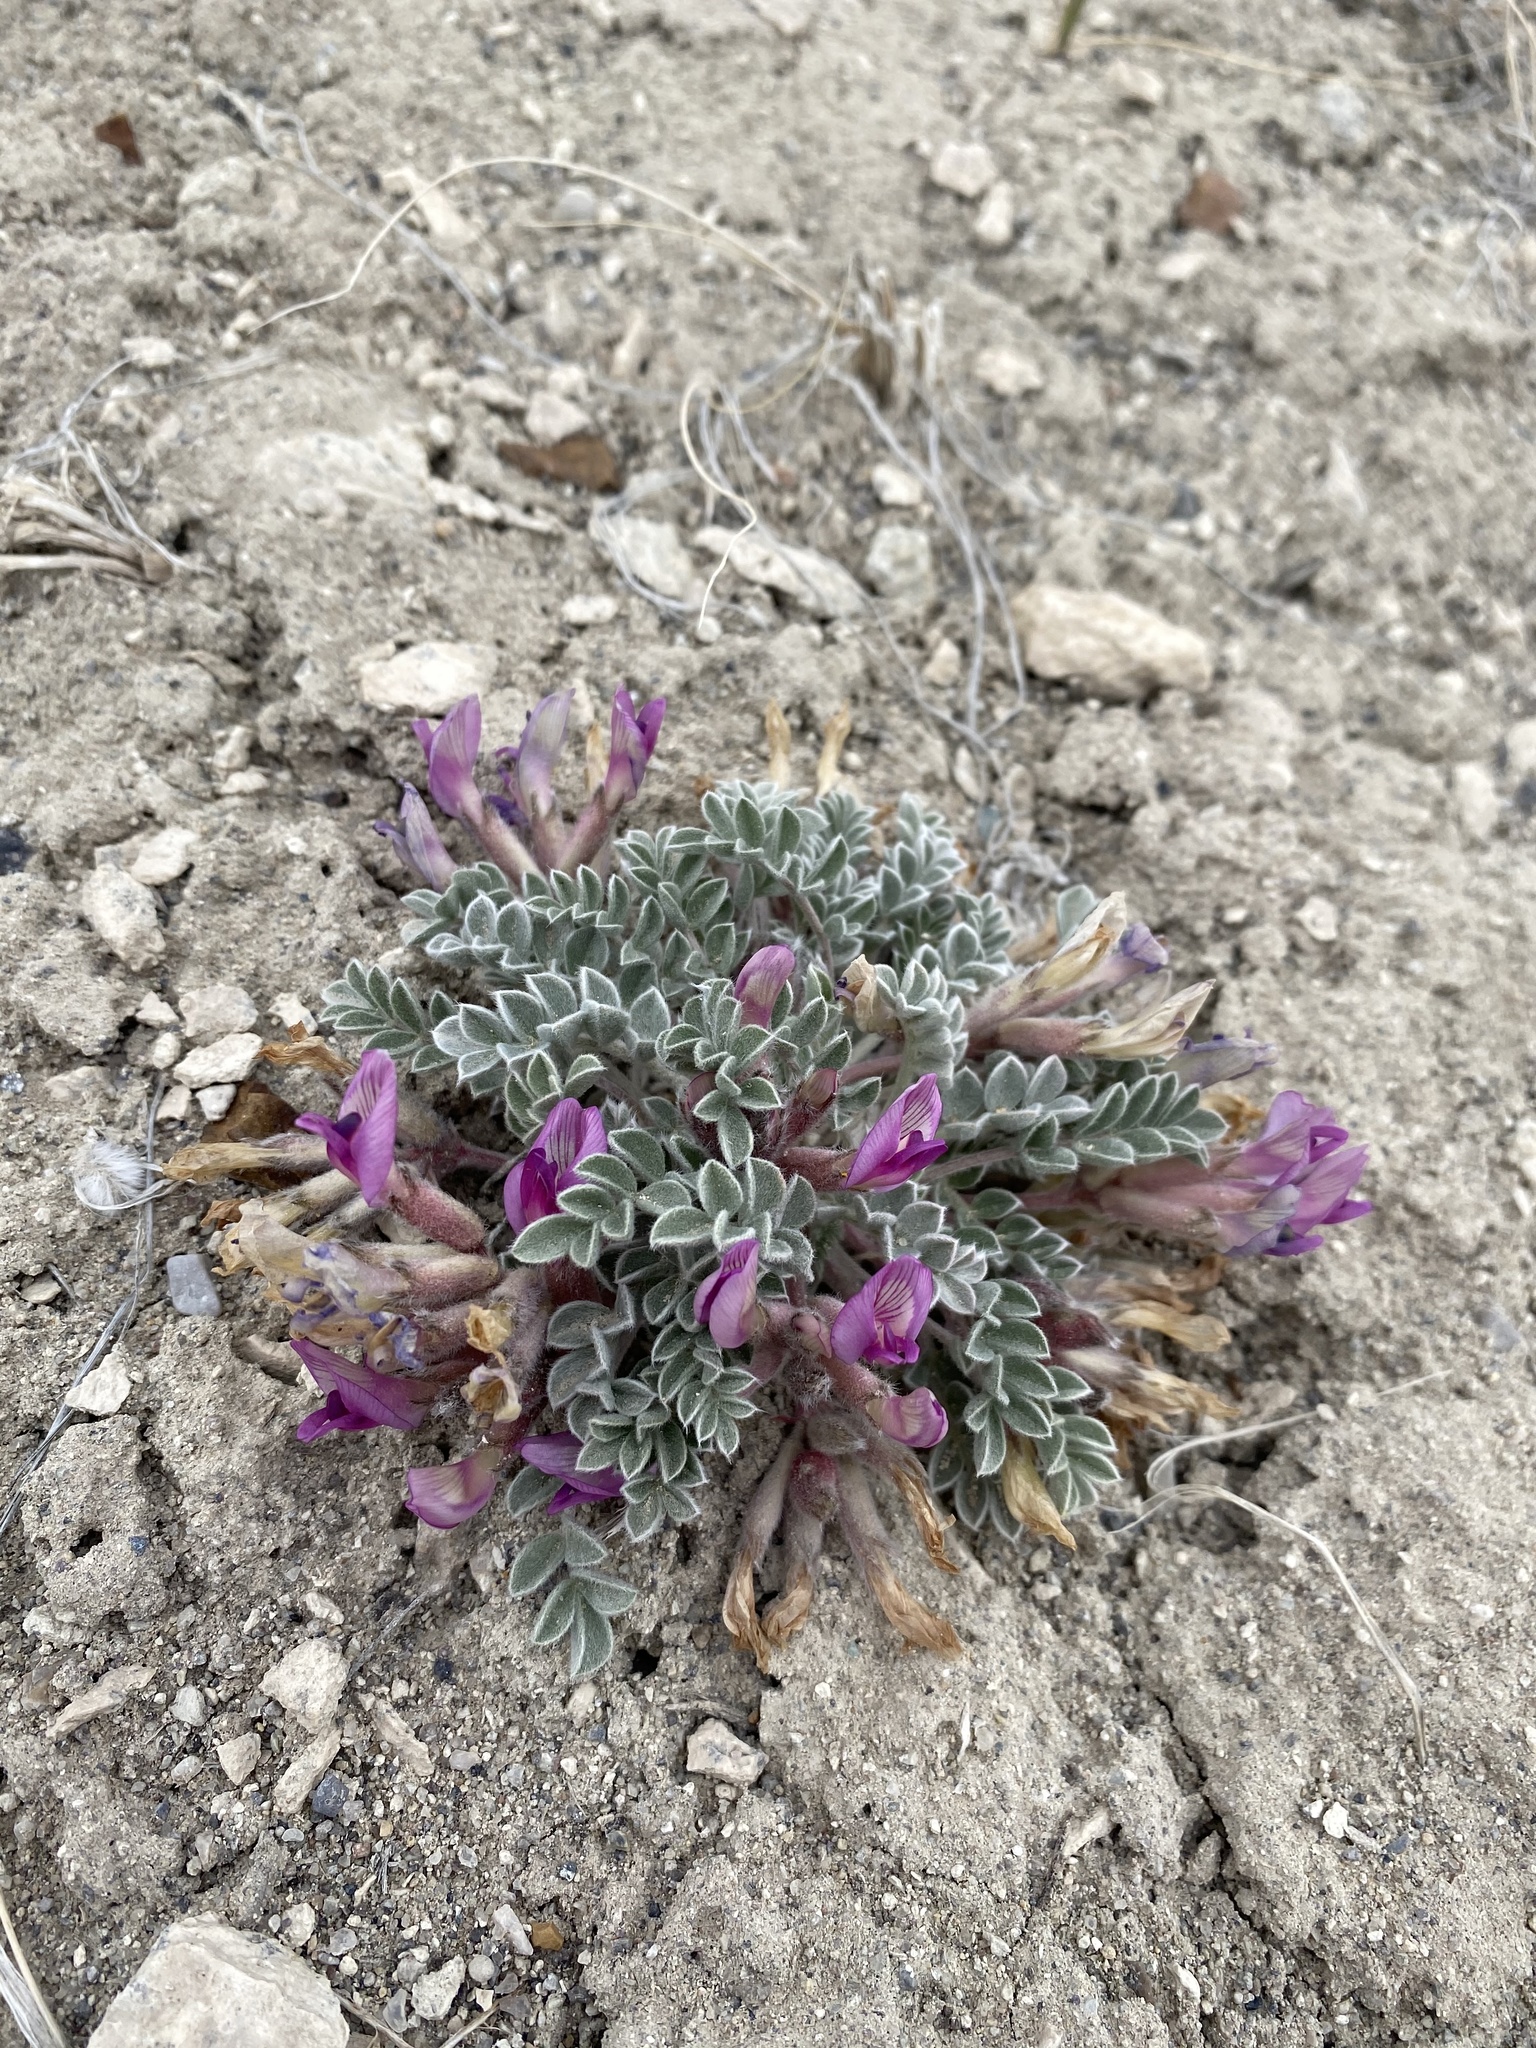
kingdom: Plantae
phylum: Tracheophyta
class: Magnoliopsida
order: Fabales
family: Fabaceae
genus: Astragalus
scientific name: Astragalus newberryi
